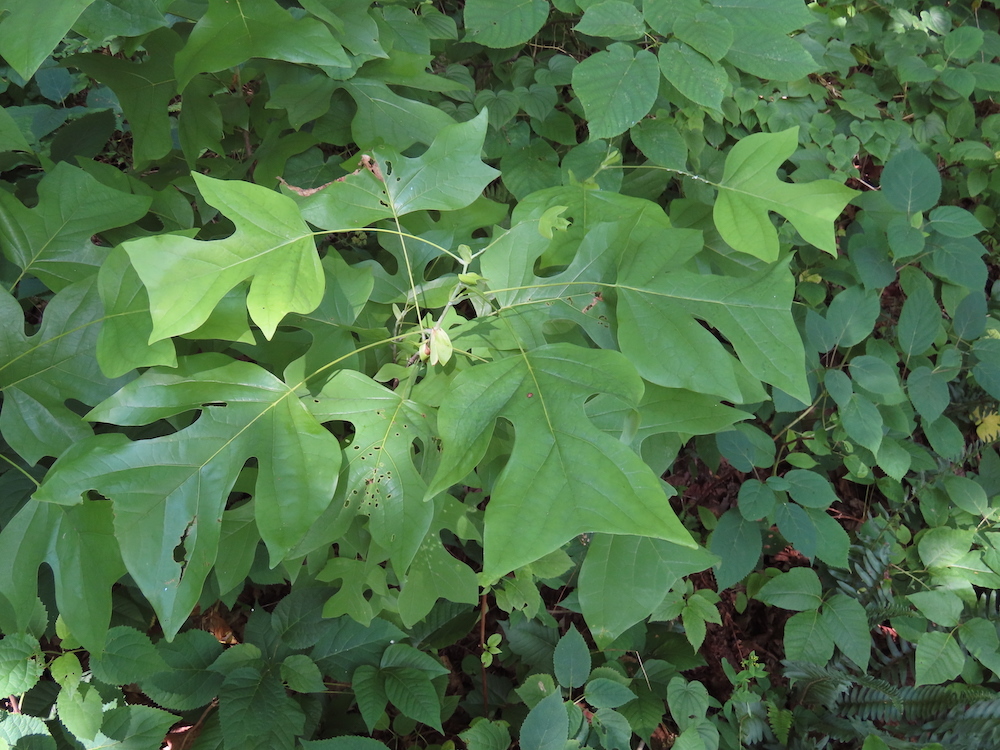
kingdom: Plantae
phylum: Tracheophyta
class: Magnoliopsida
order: Magnoliales
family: Magnoliaceae
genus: Liriodendron
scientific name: Liriodendron tulipifera
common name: Tulip tree
